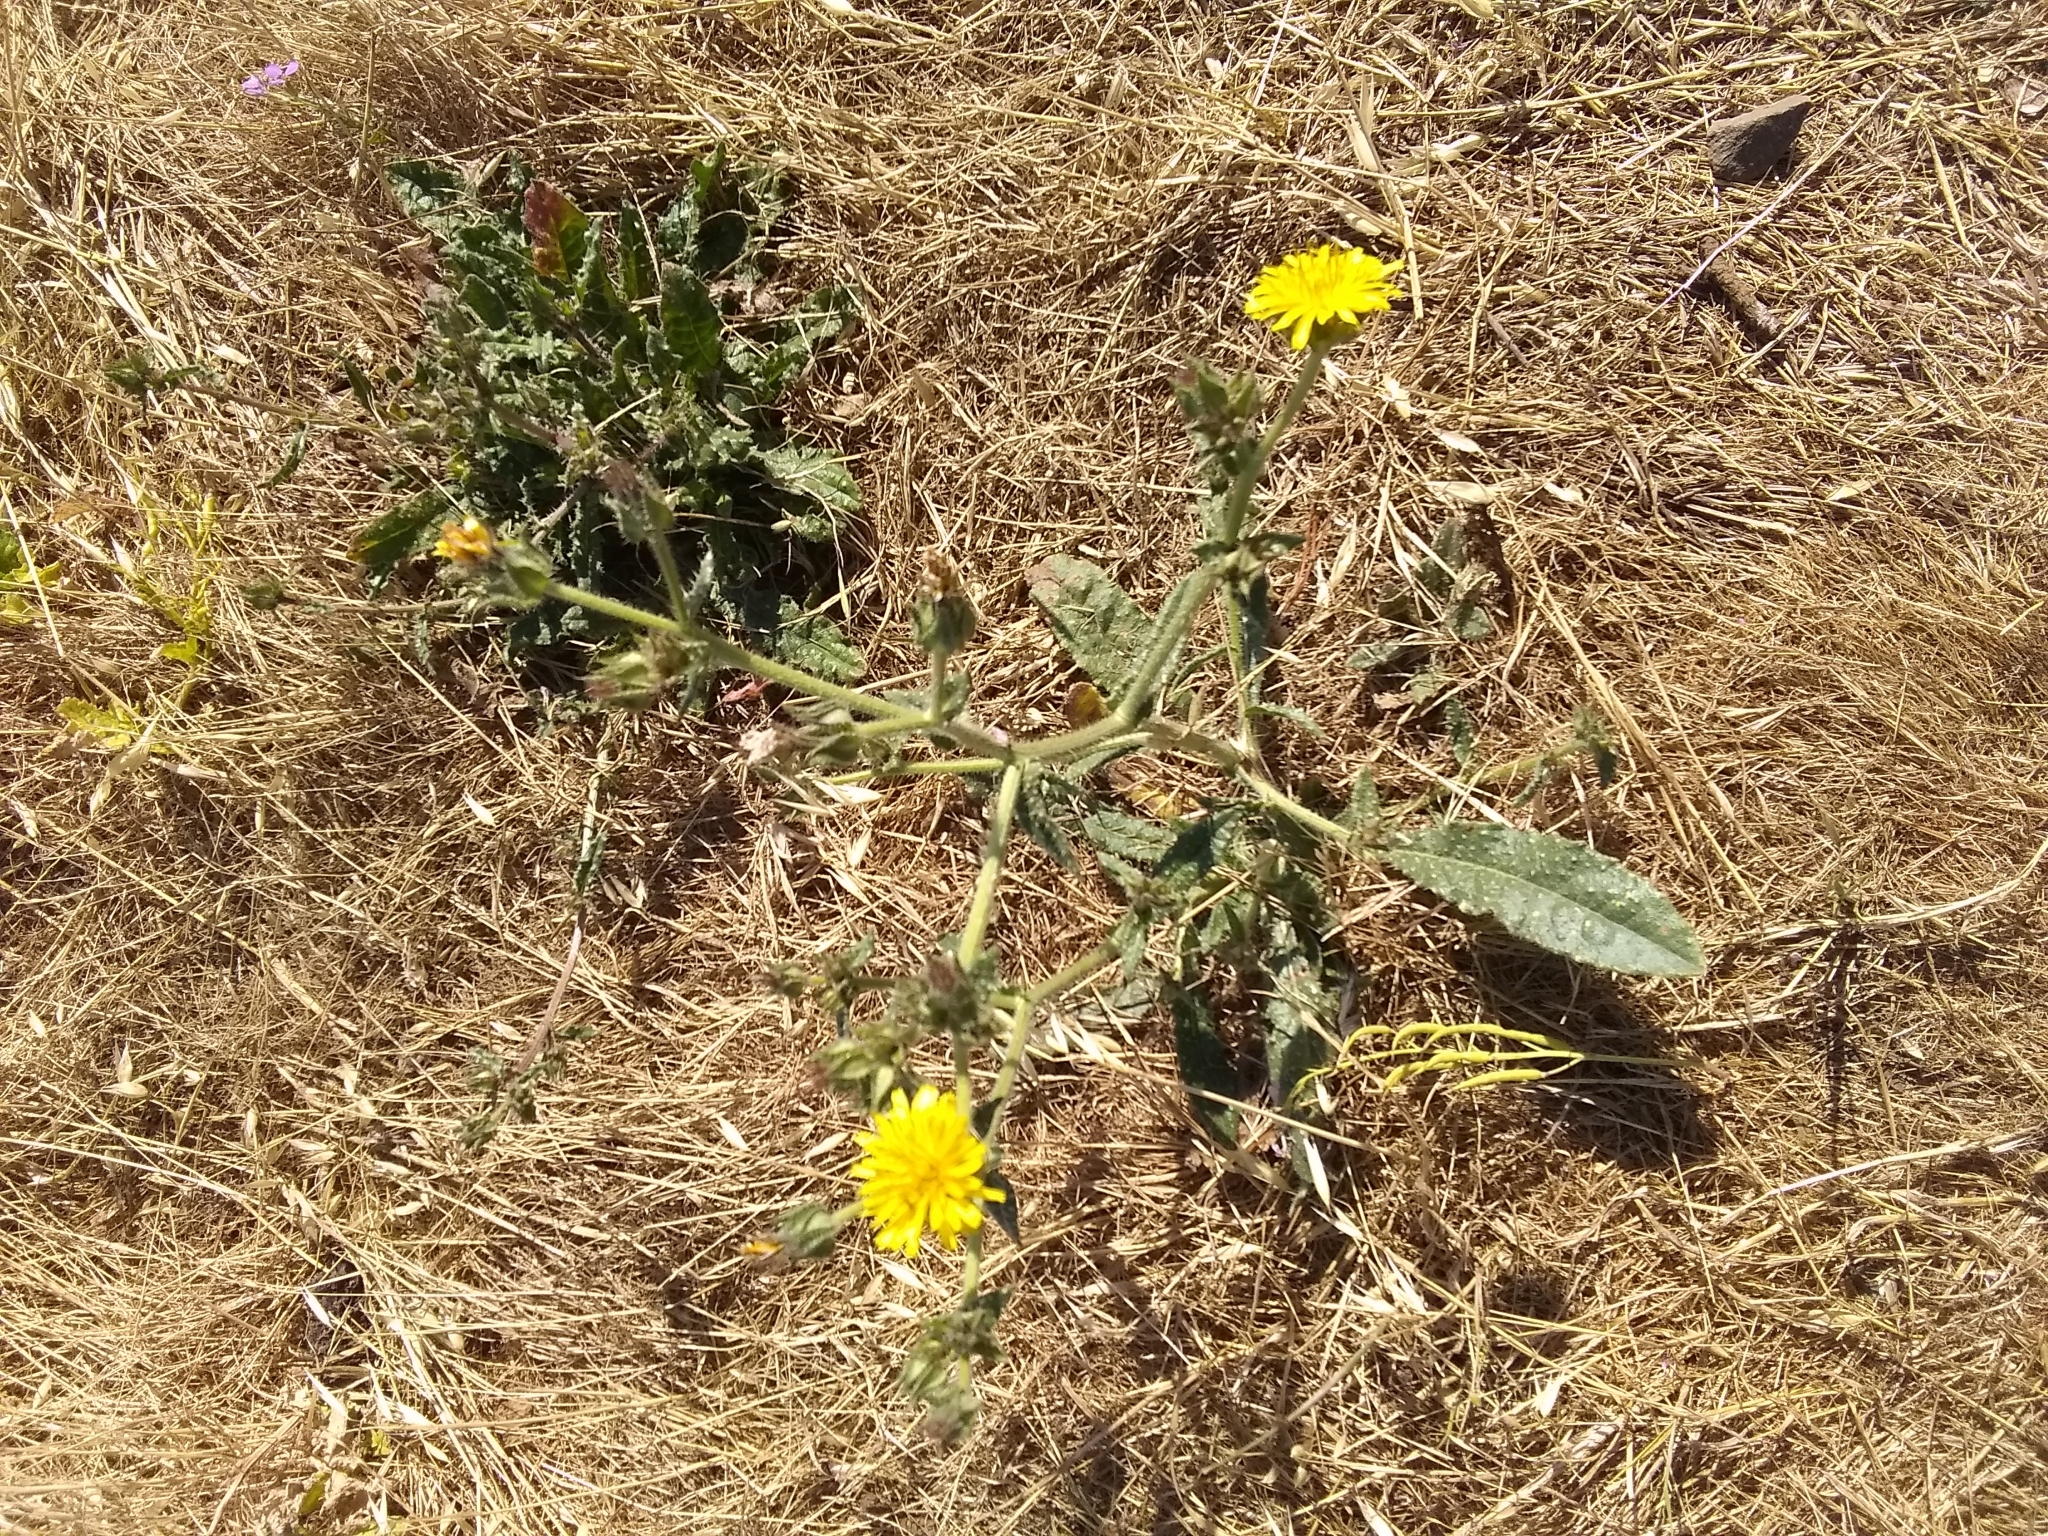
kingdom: Plantae
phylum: Tracheophyta
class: Magnoliopsida
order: Asterales
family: Asteraceae
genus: Helminthotheca
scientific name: Helminthotheca echioides
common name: Ox-tongue
